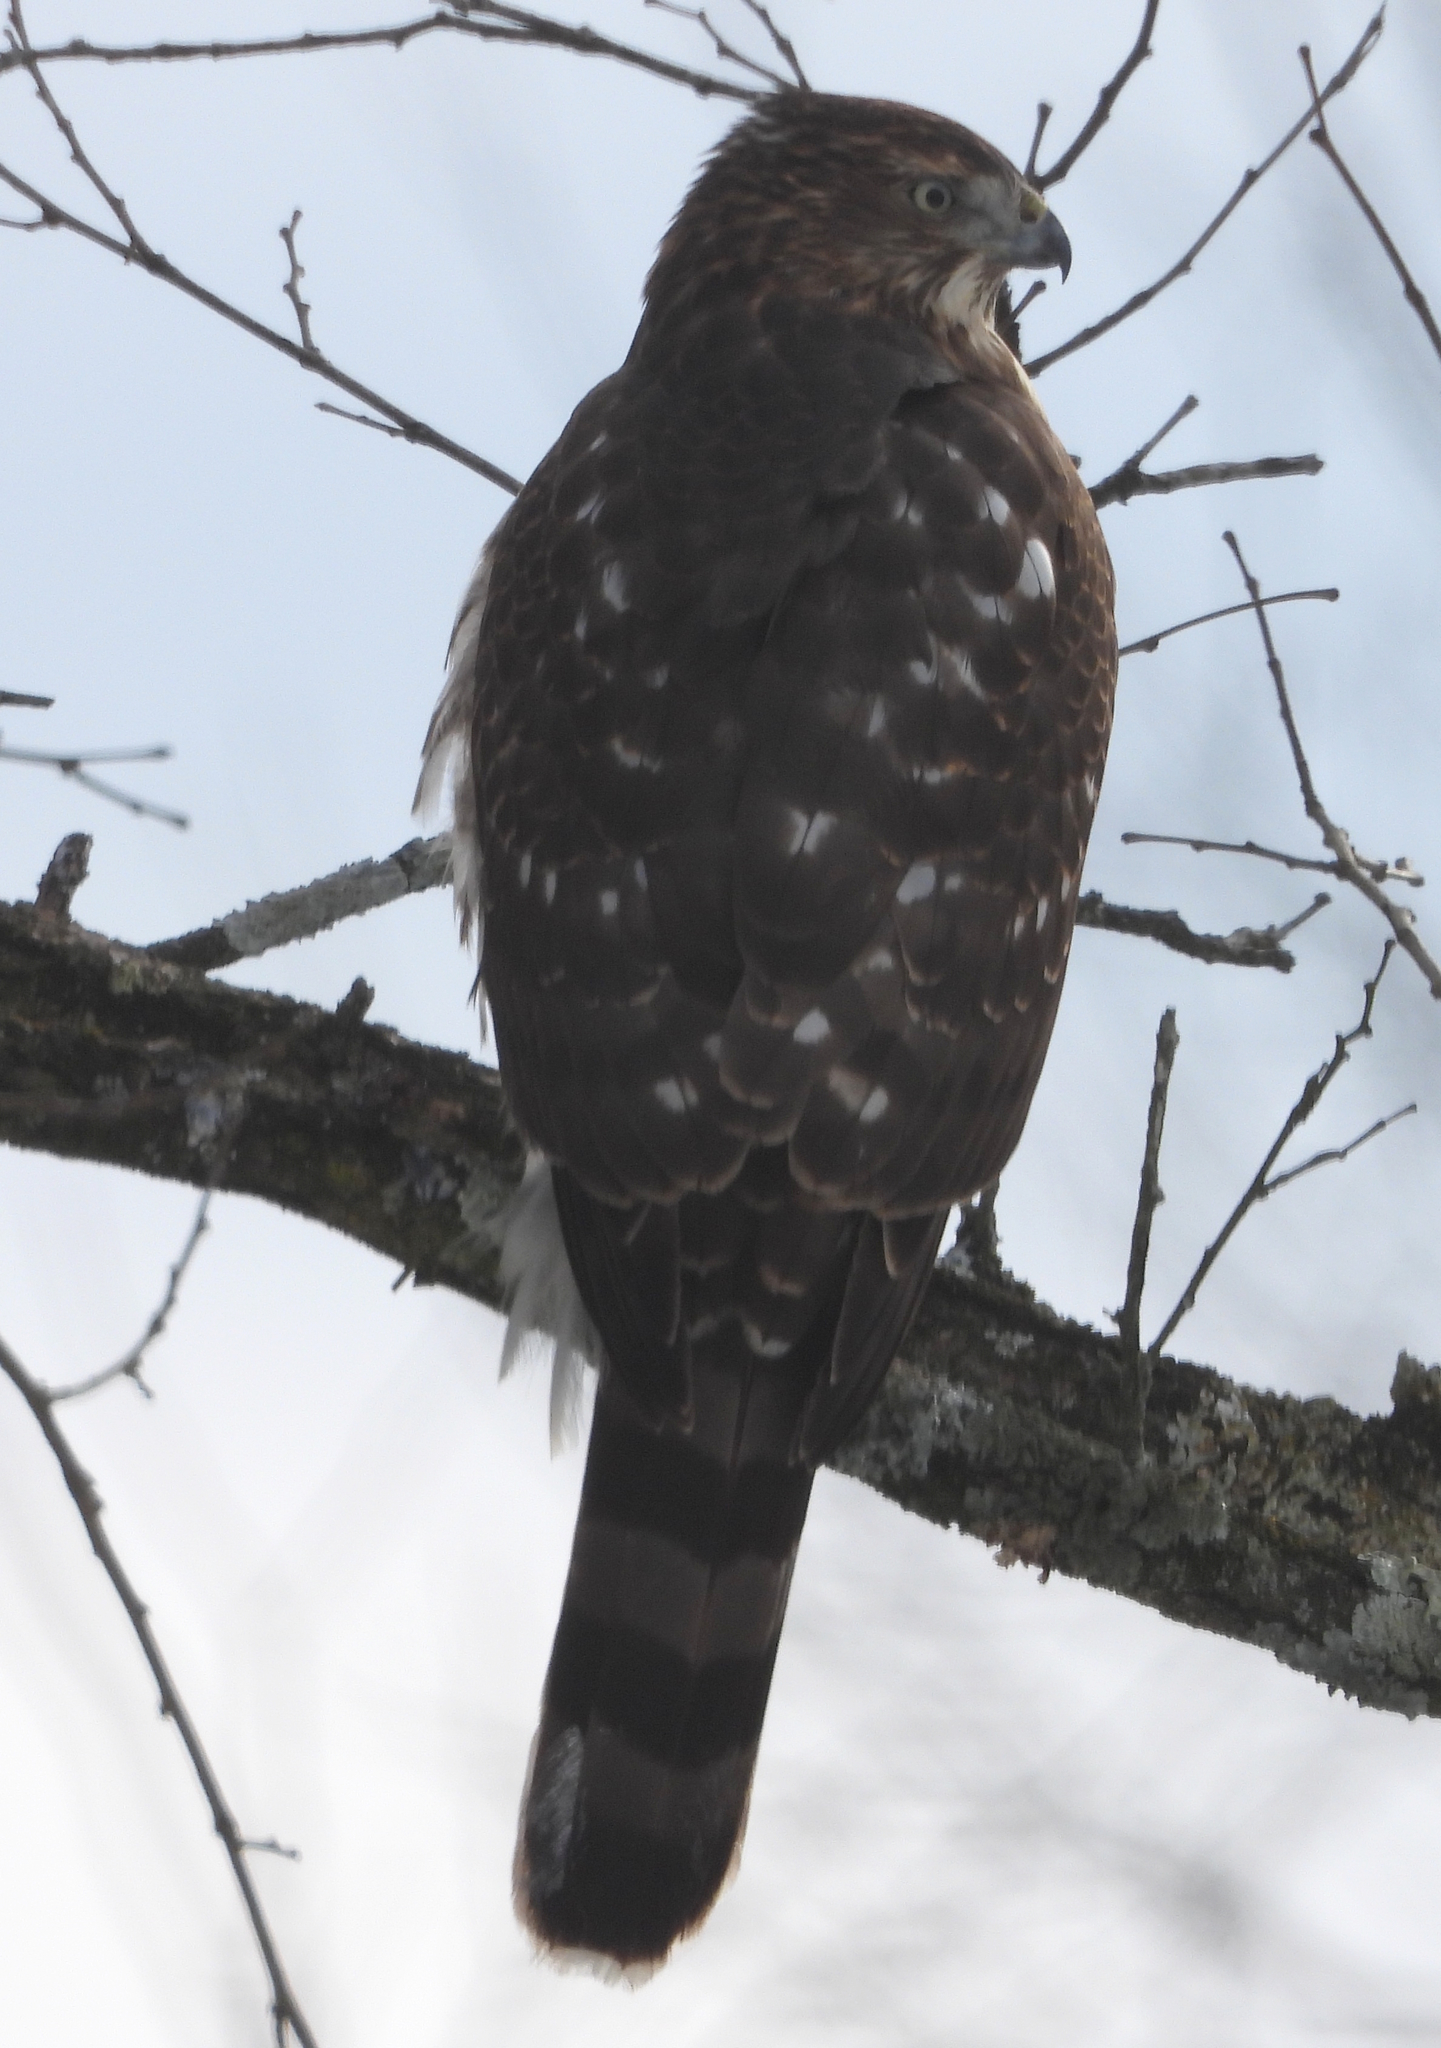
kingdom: Animalia
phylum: Chordata
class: Aves
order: Accipitriformes
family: Accipitridae
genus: Accipiter
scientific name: Accipiter cooperii
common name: Cooper's hawk
